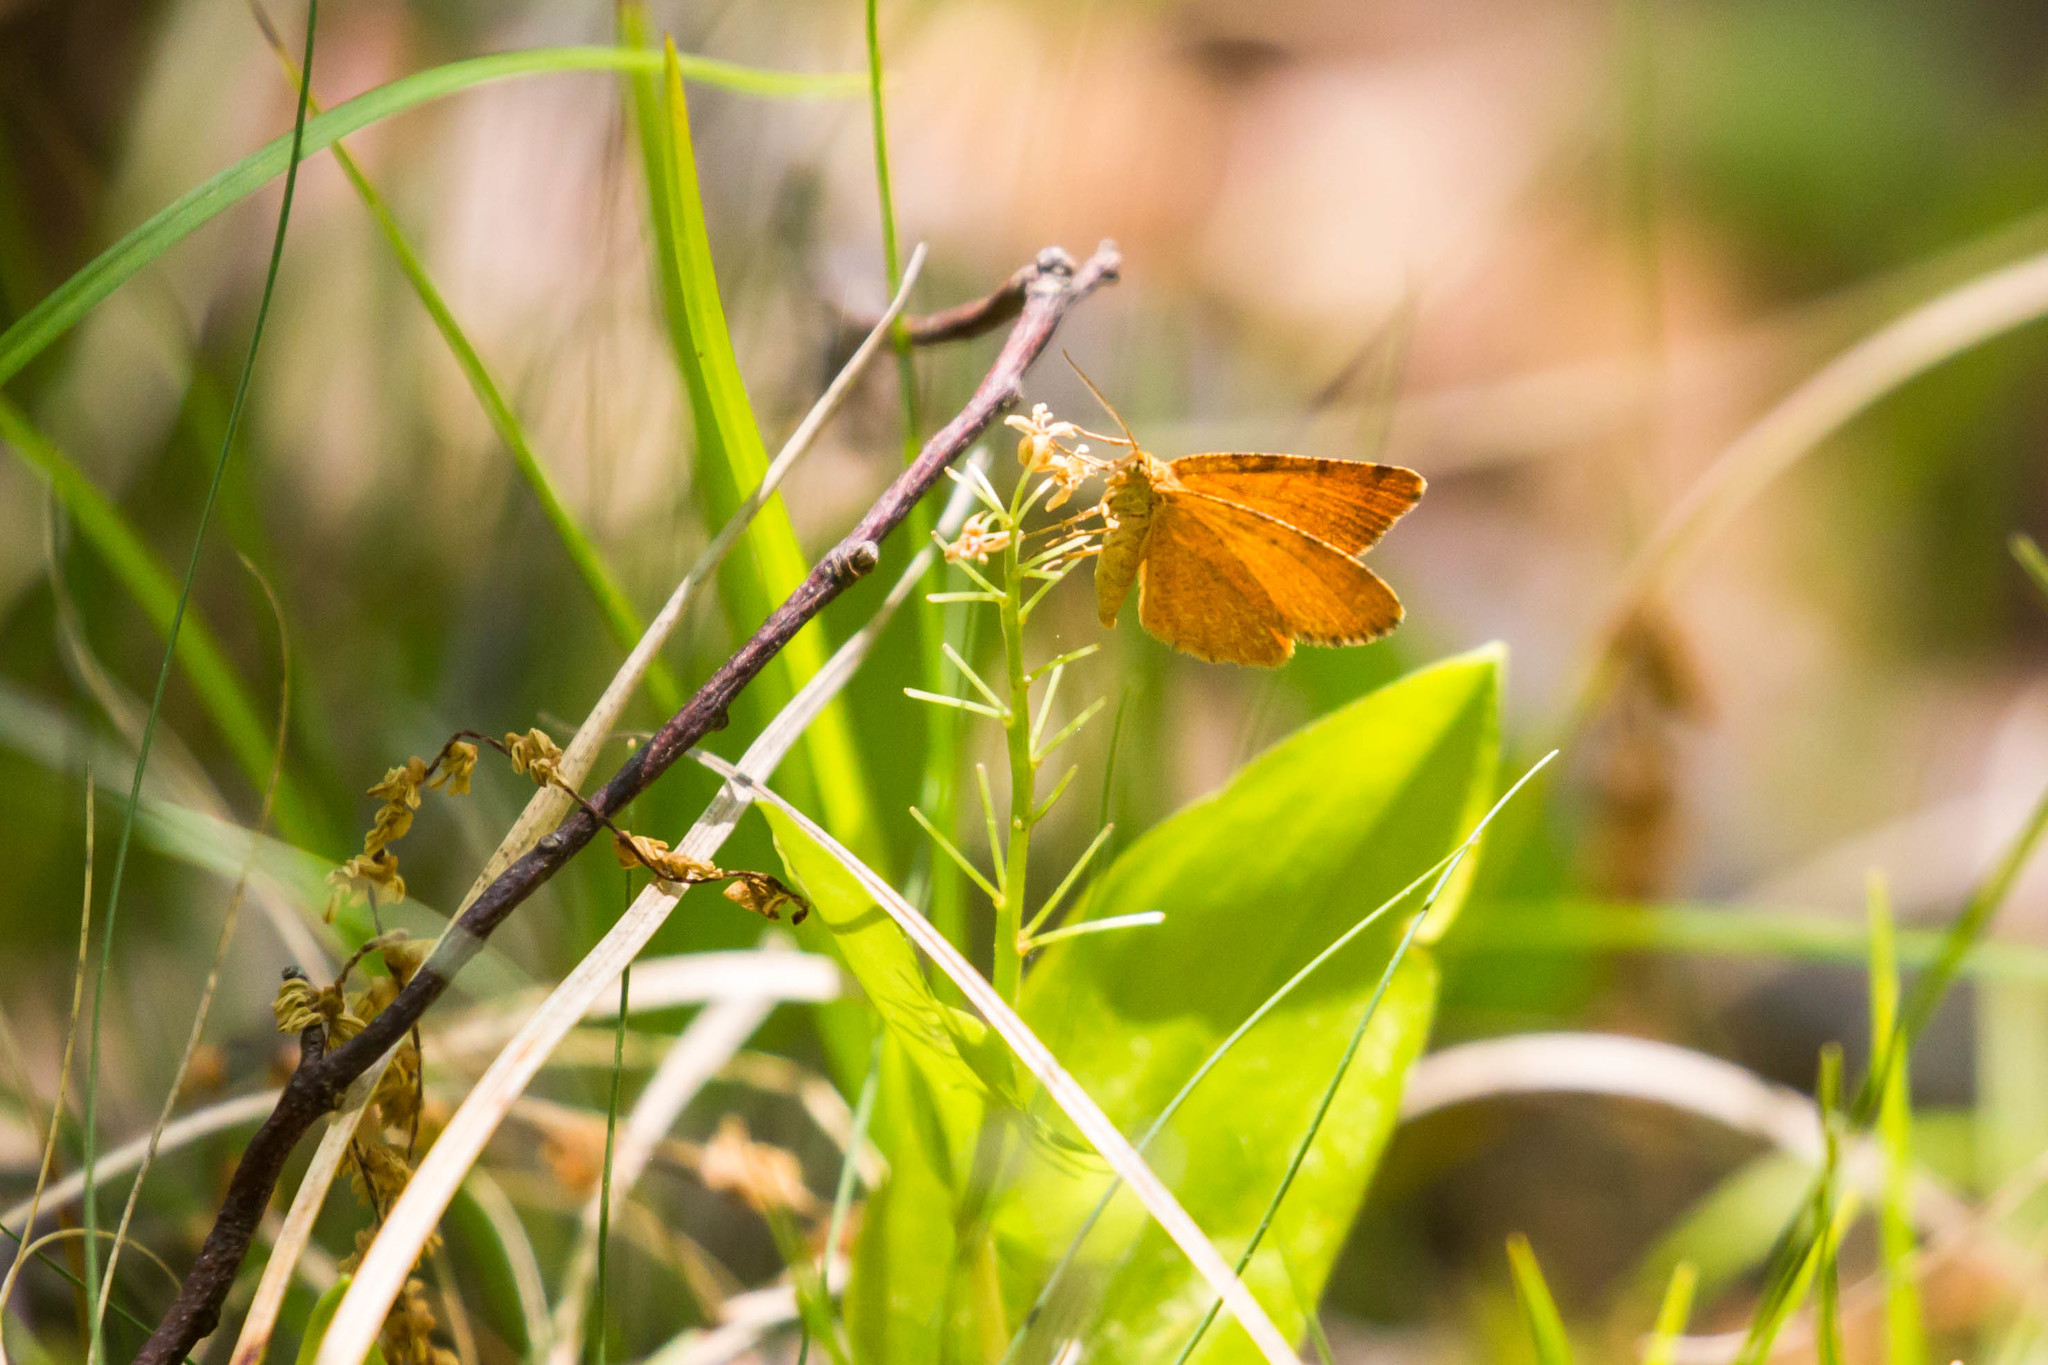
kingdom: Animalia
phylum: Arthropoda
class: Insecta
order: Lepidoptera
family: Geometridae
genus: Macaria
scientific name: Macaria brunneata
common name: Rannoch looper
